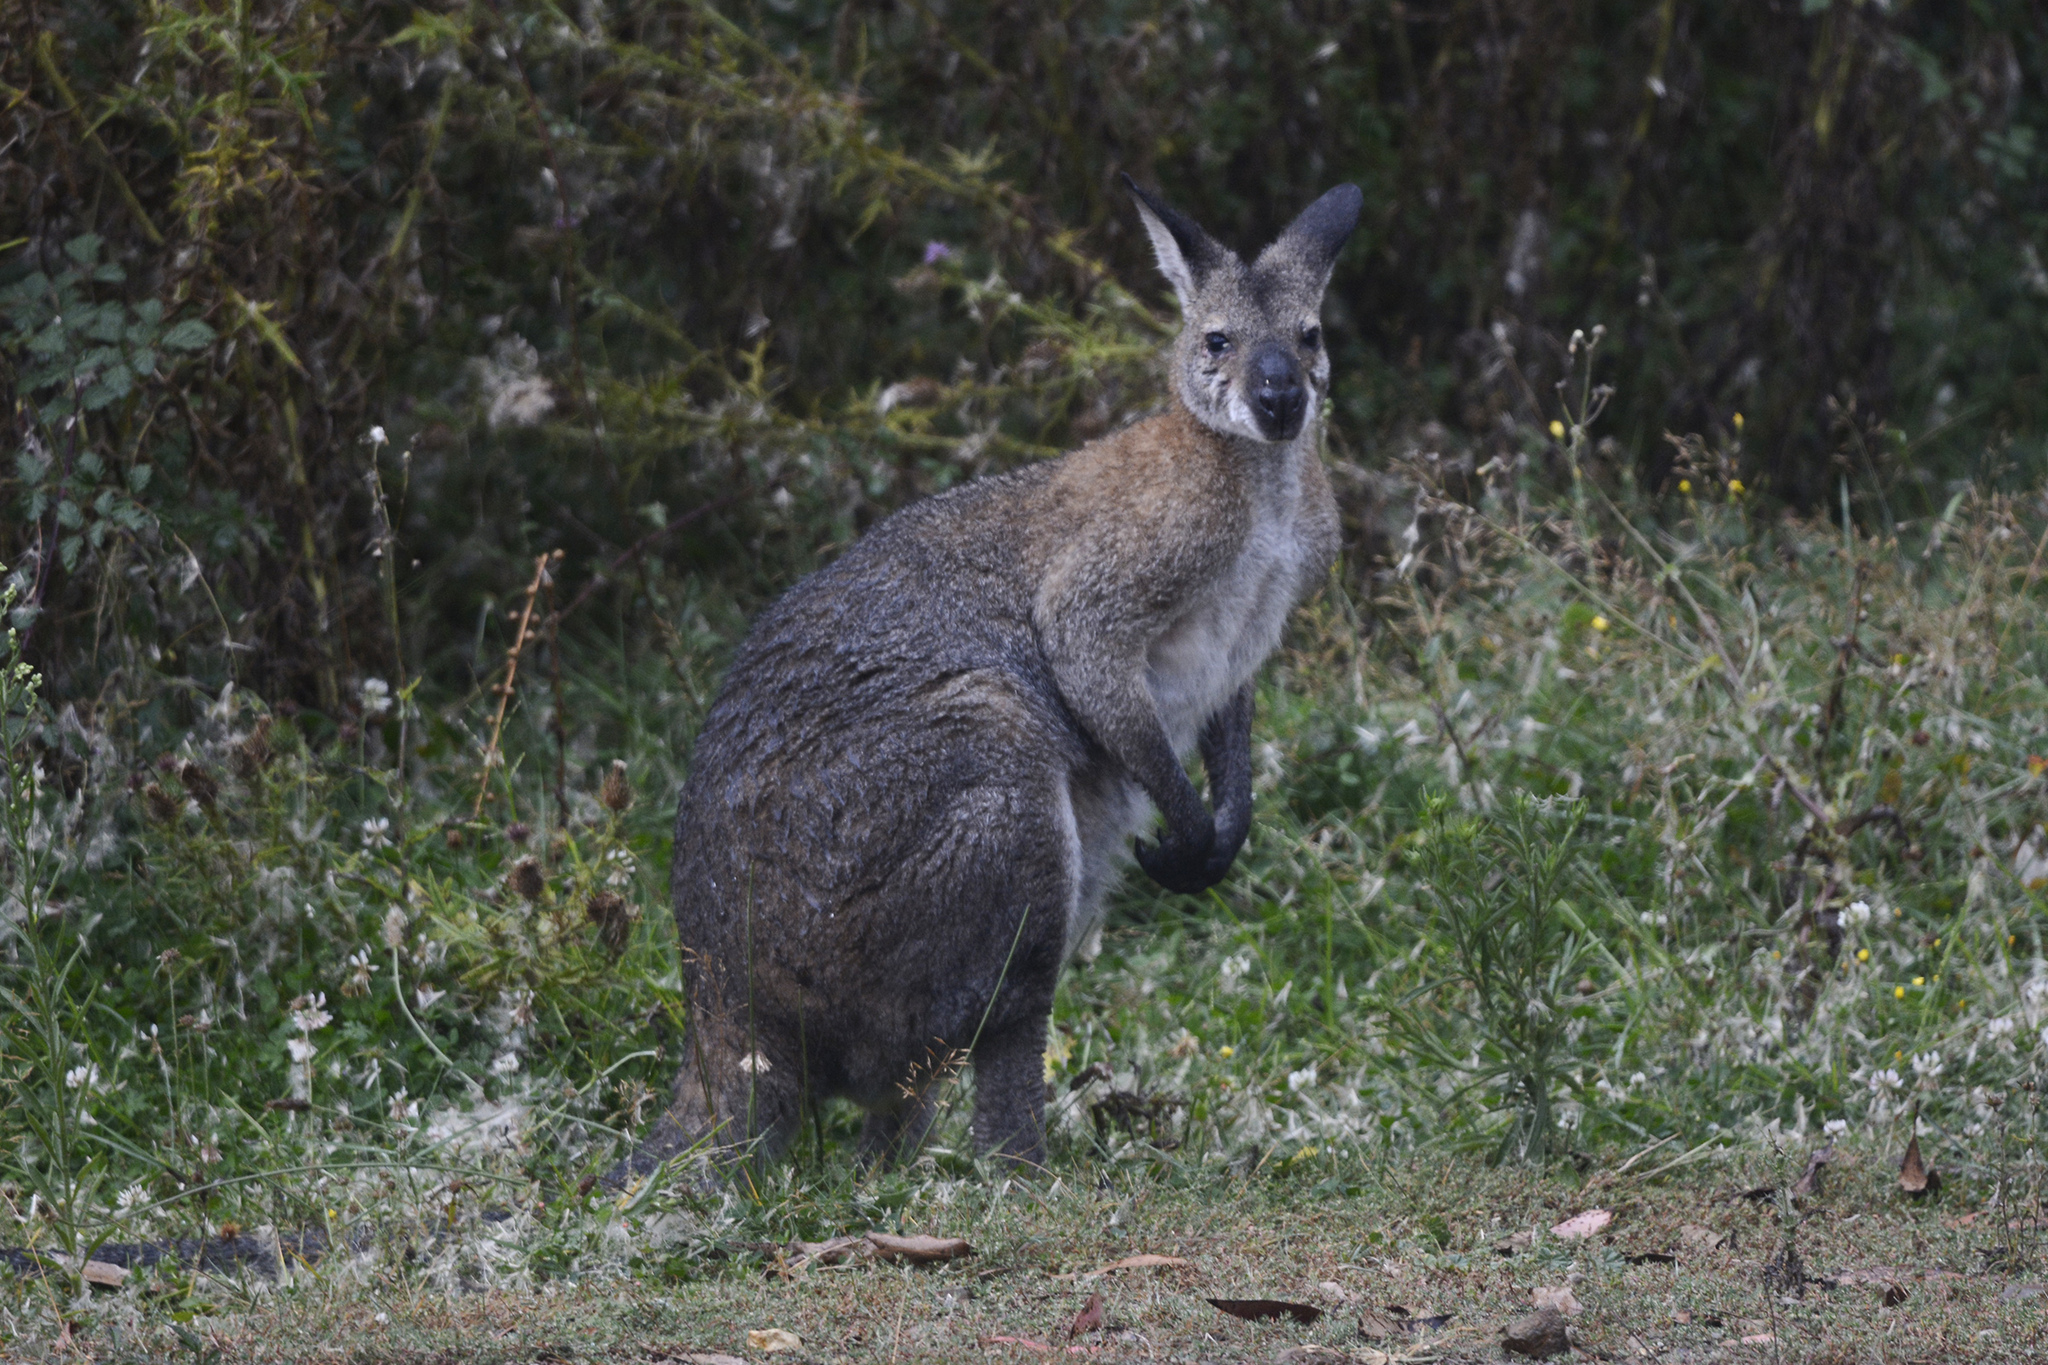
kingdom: Animalia
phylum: Chordata
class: Mammalia
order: Diprotodontia
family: Macropodidae
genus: Notamacropus
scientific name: Notamacropus rufogriseus
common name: Red-necked wallaby
